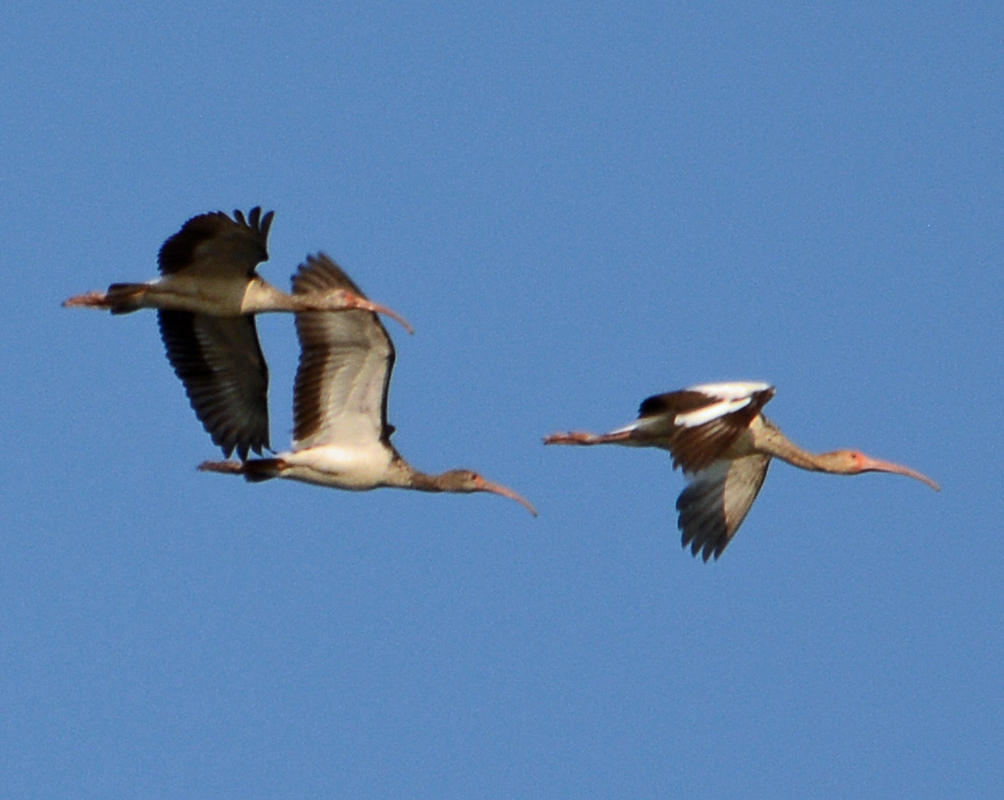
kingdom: Animalia
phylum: Chordata
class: Aves
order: Pelecaniformes
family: Threskiornithidae
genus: Eudocimus
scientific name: Eudocimus albus
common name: White ibis
